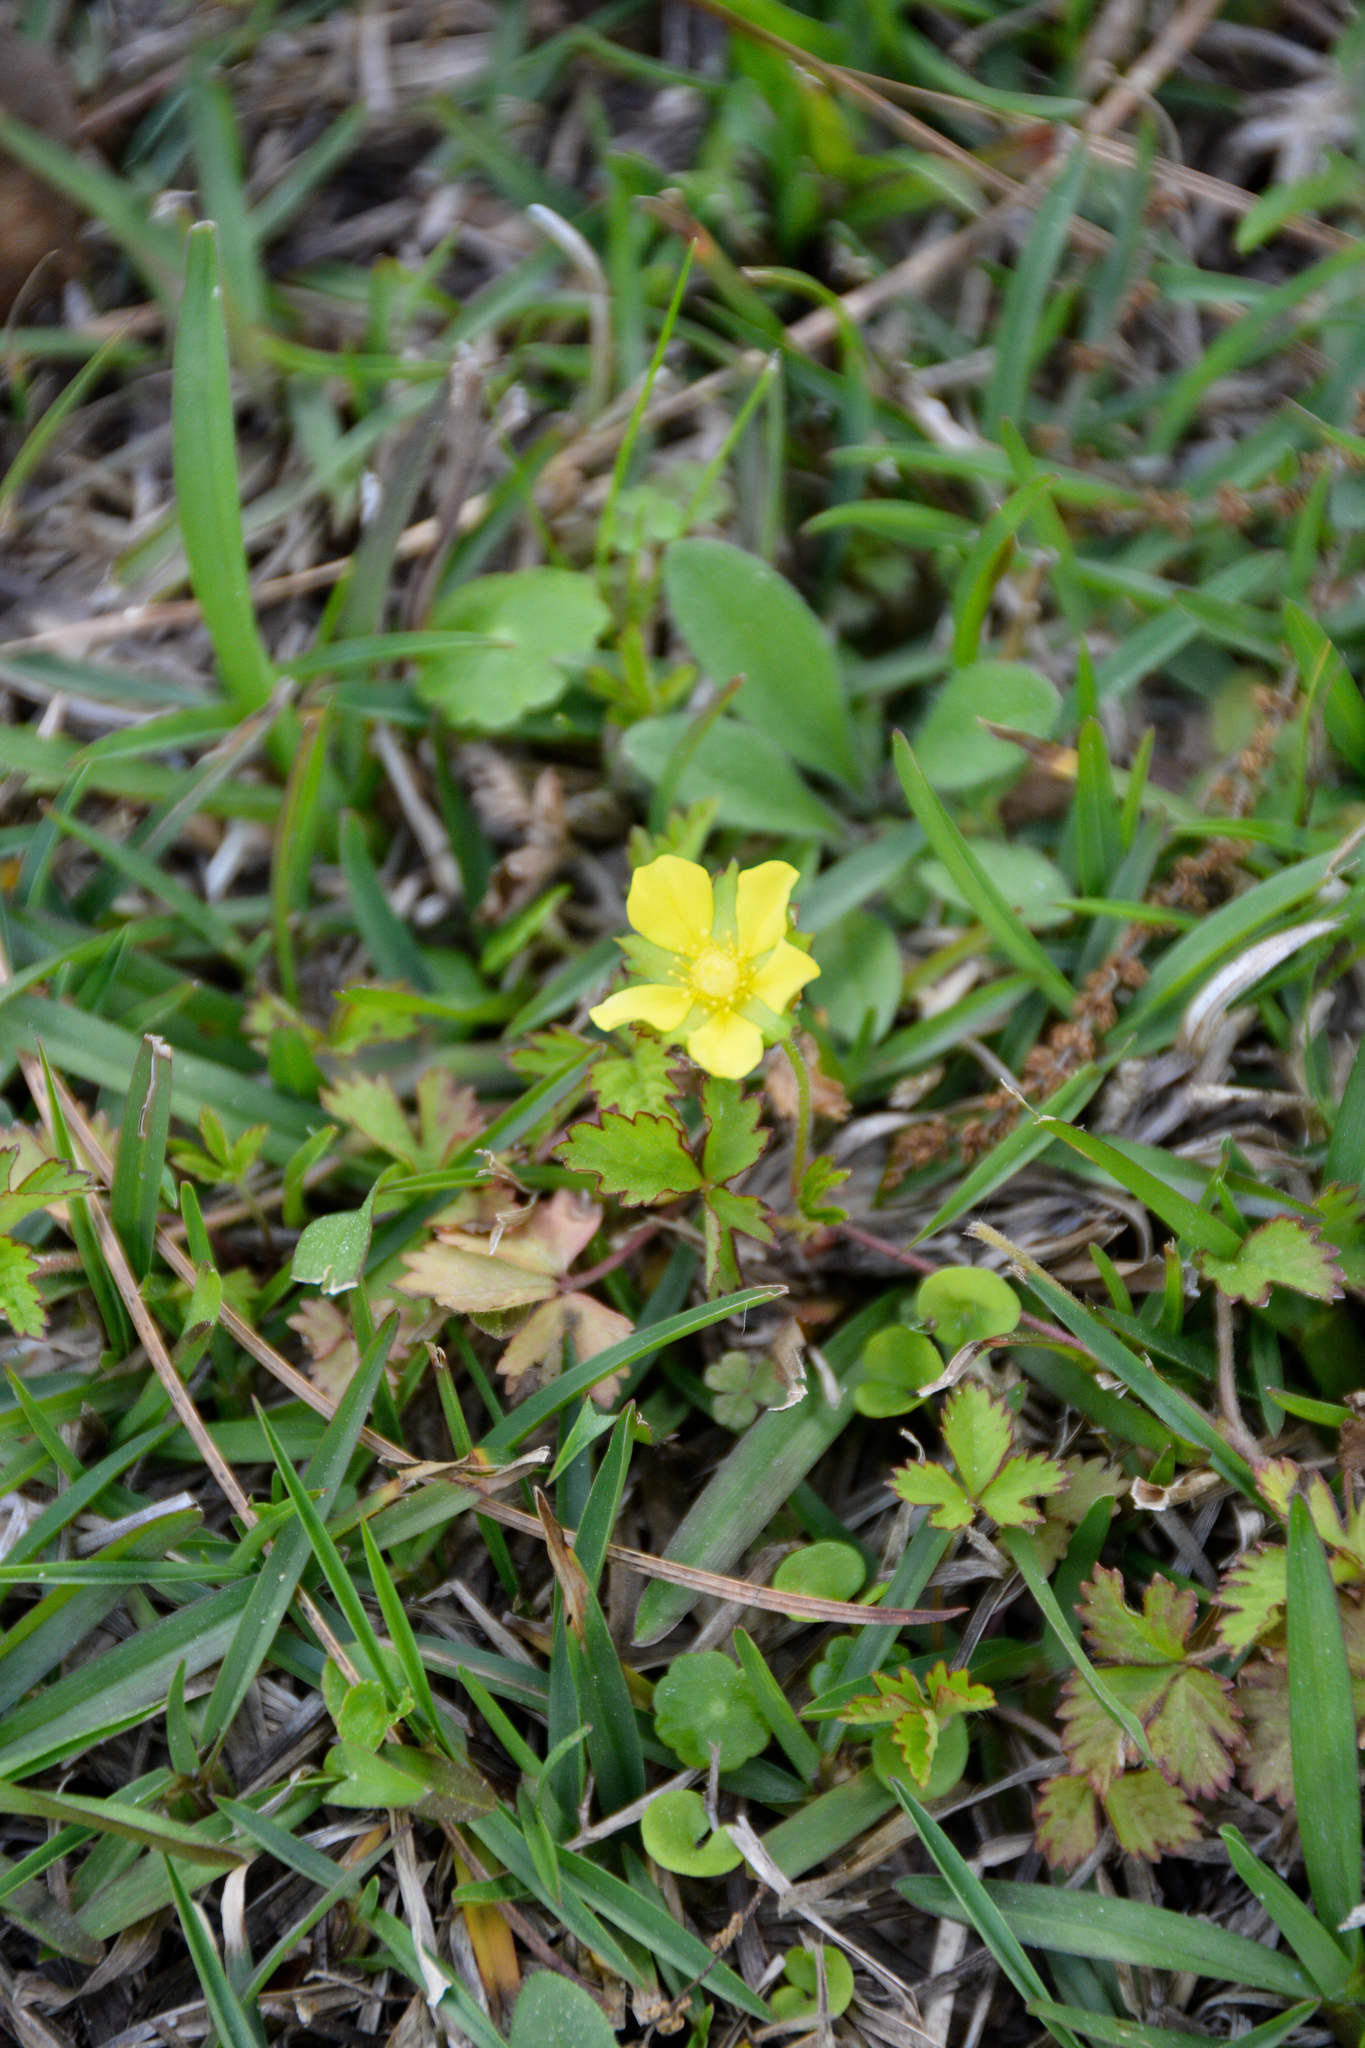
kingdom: Plantae
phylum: Tracheophyta
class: Magnoliopsida
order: Rosales
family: Rosaceae
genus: Potentilla
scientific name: Potentilla indica
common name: Yellow-flowered strawberry
